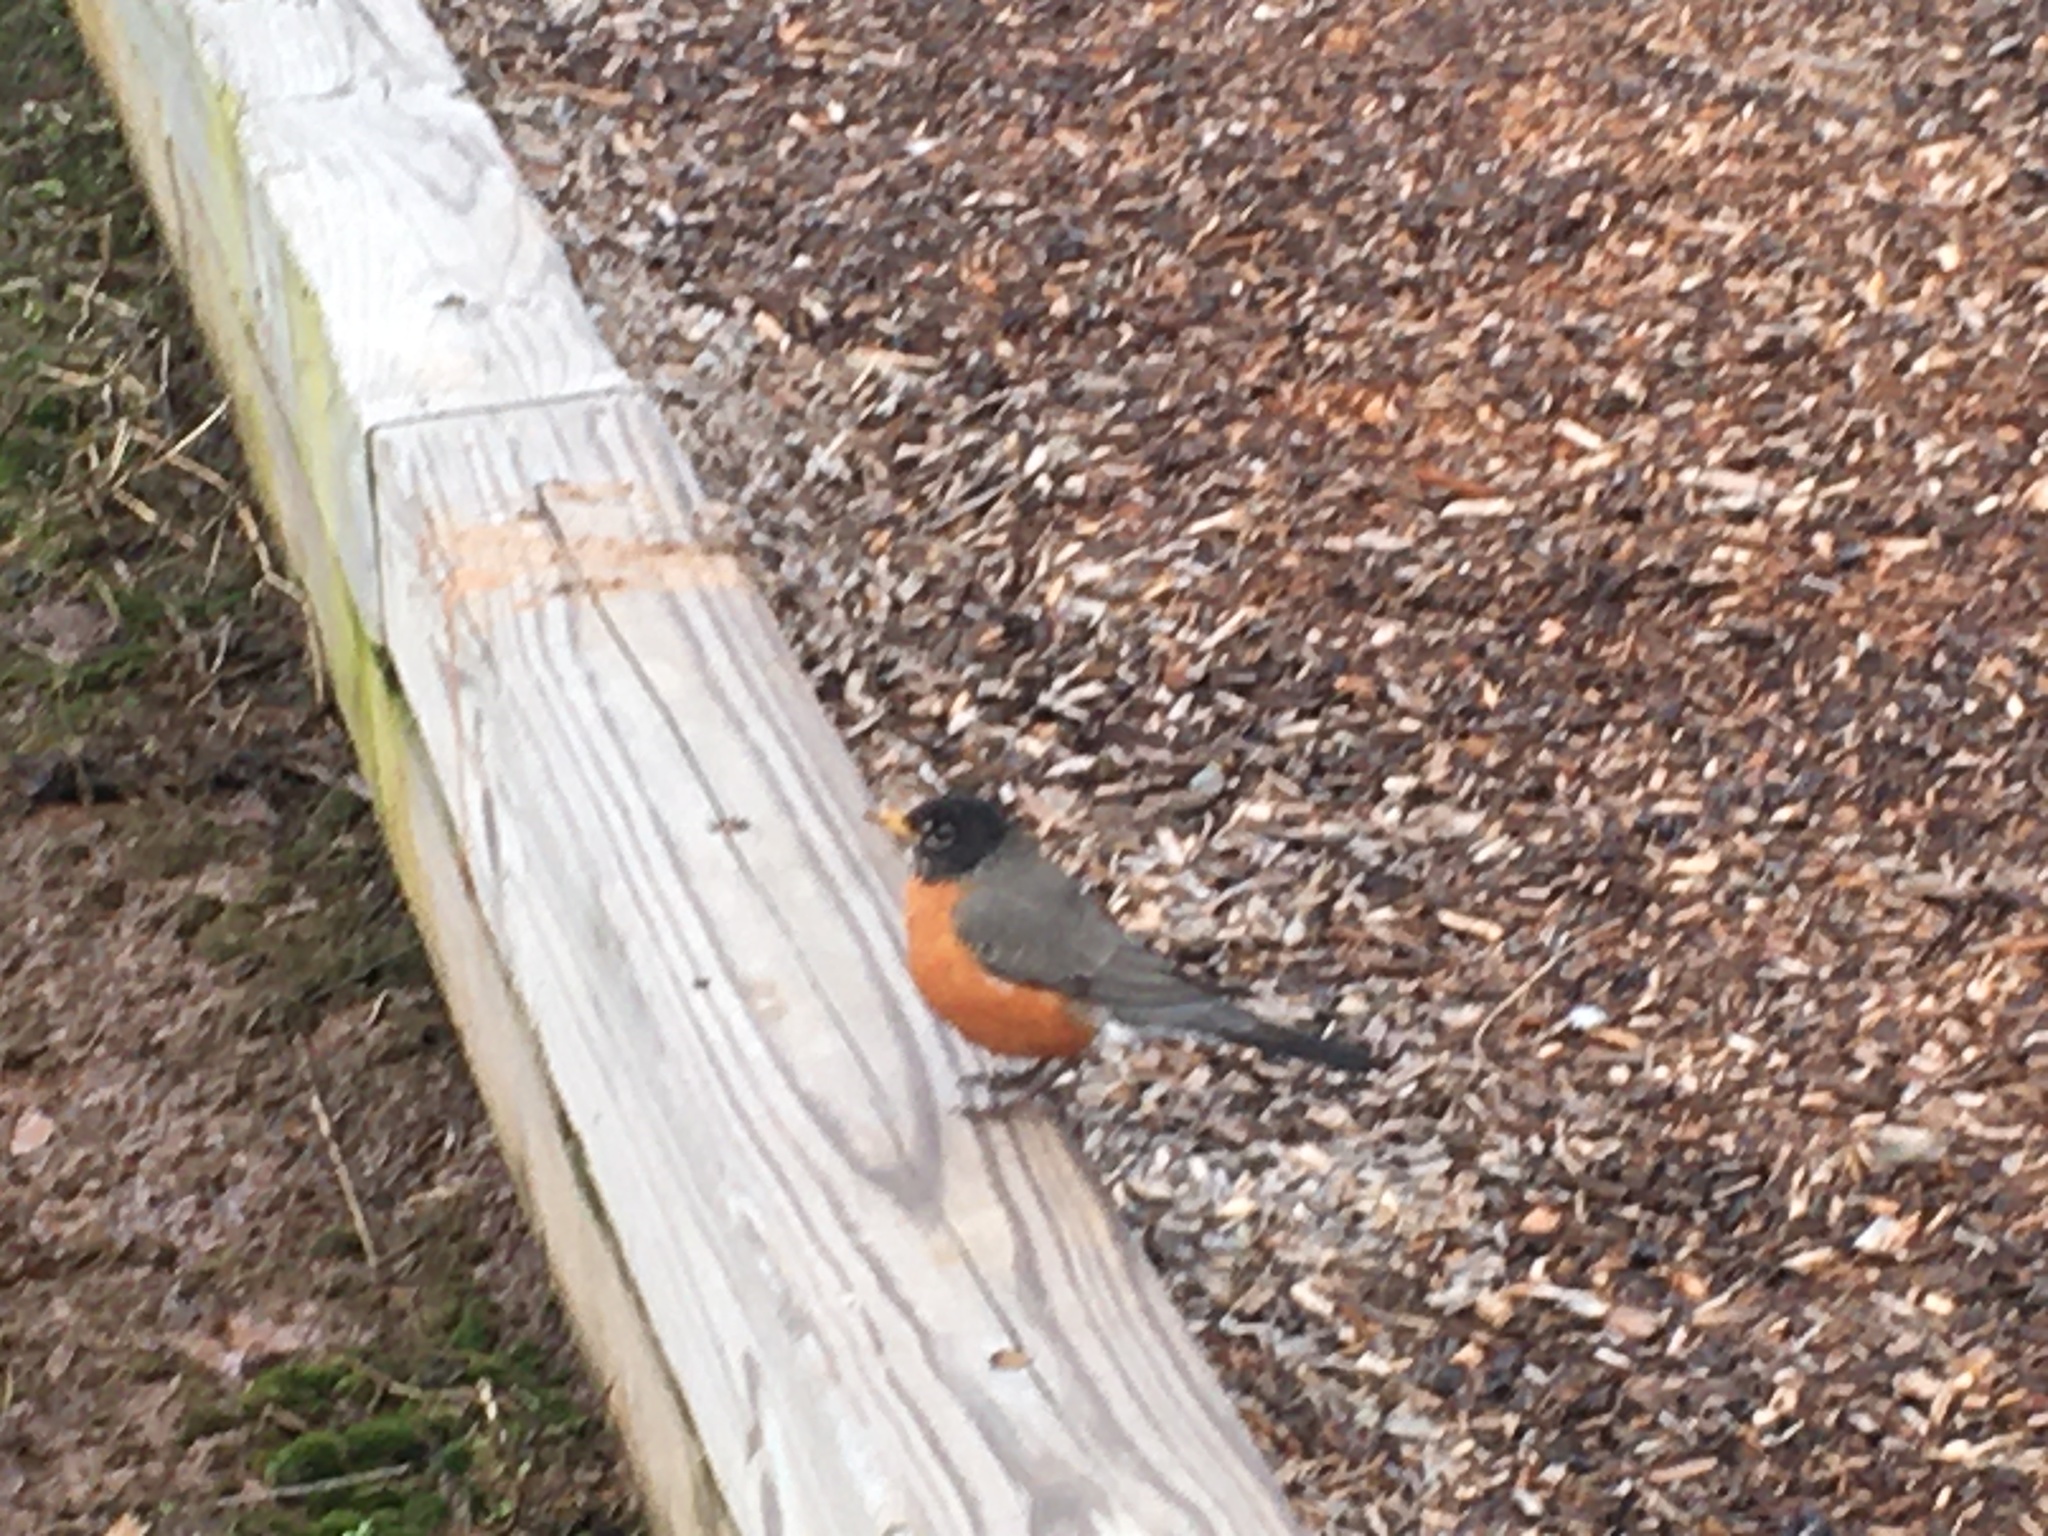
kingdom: Animalia
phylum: Chordata
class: Aves
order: Passeriformes
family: Turdidae
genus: Turdus
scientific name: Turdus migratorius
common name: American robin
